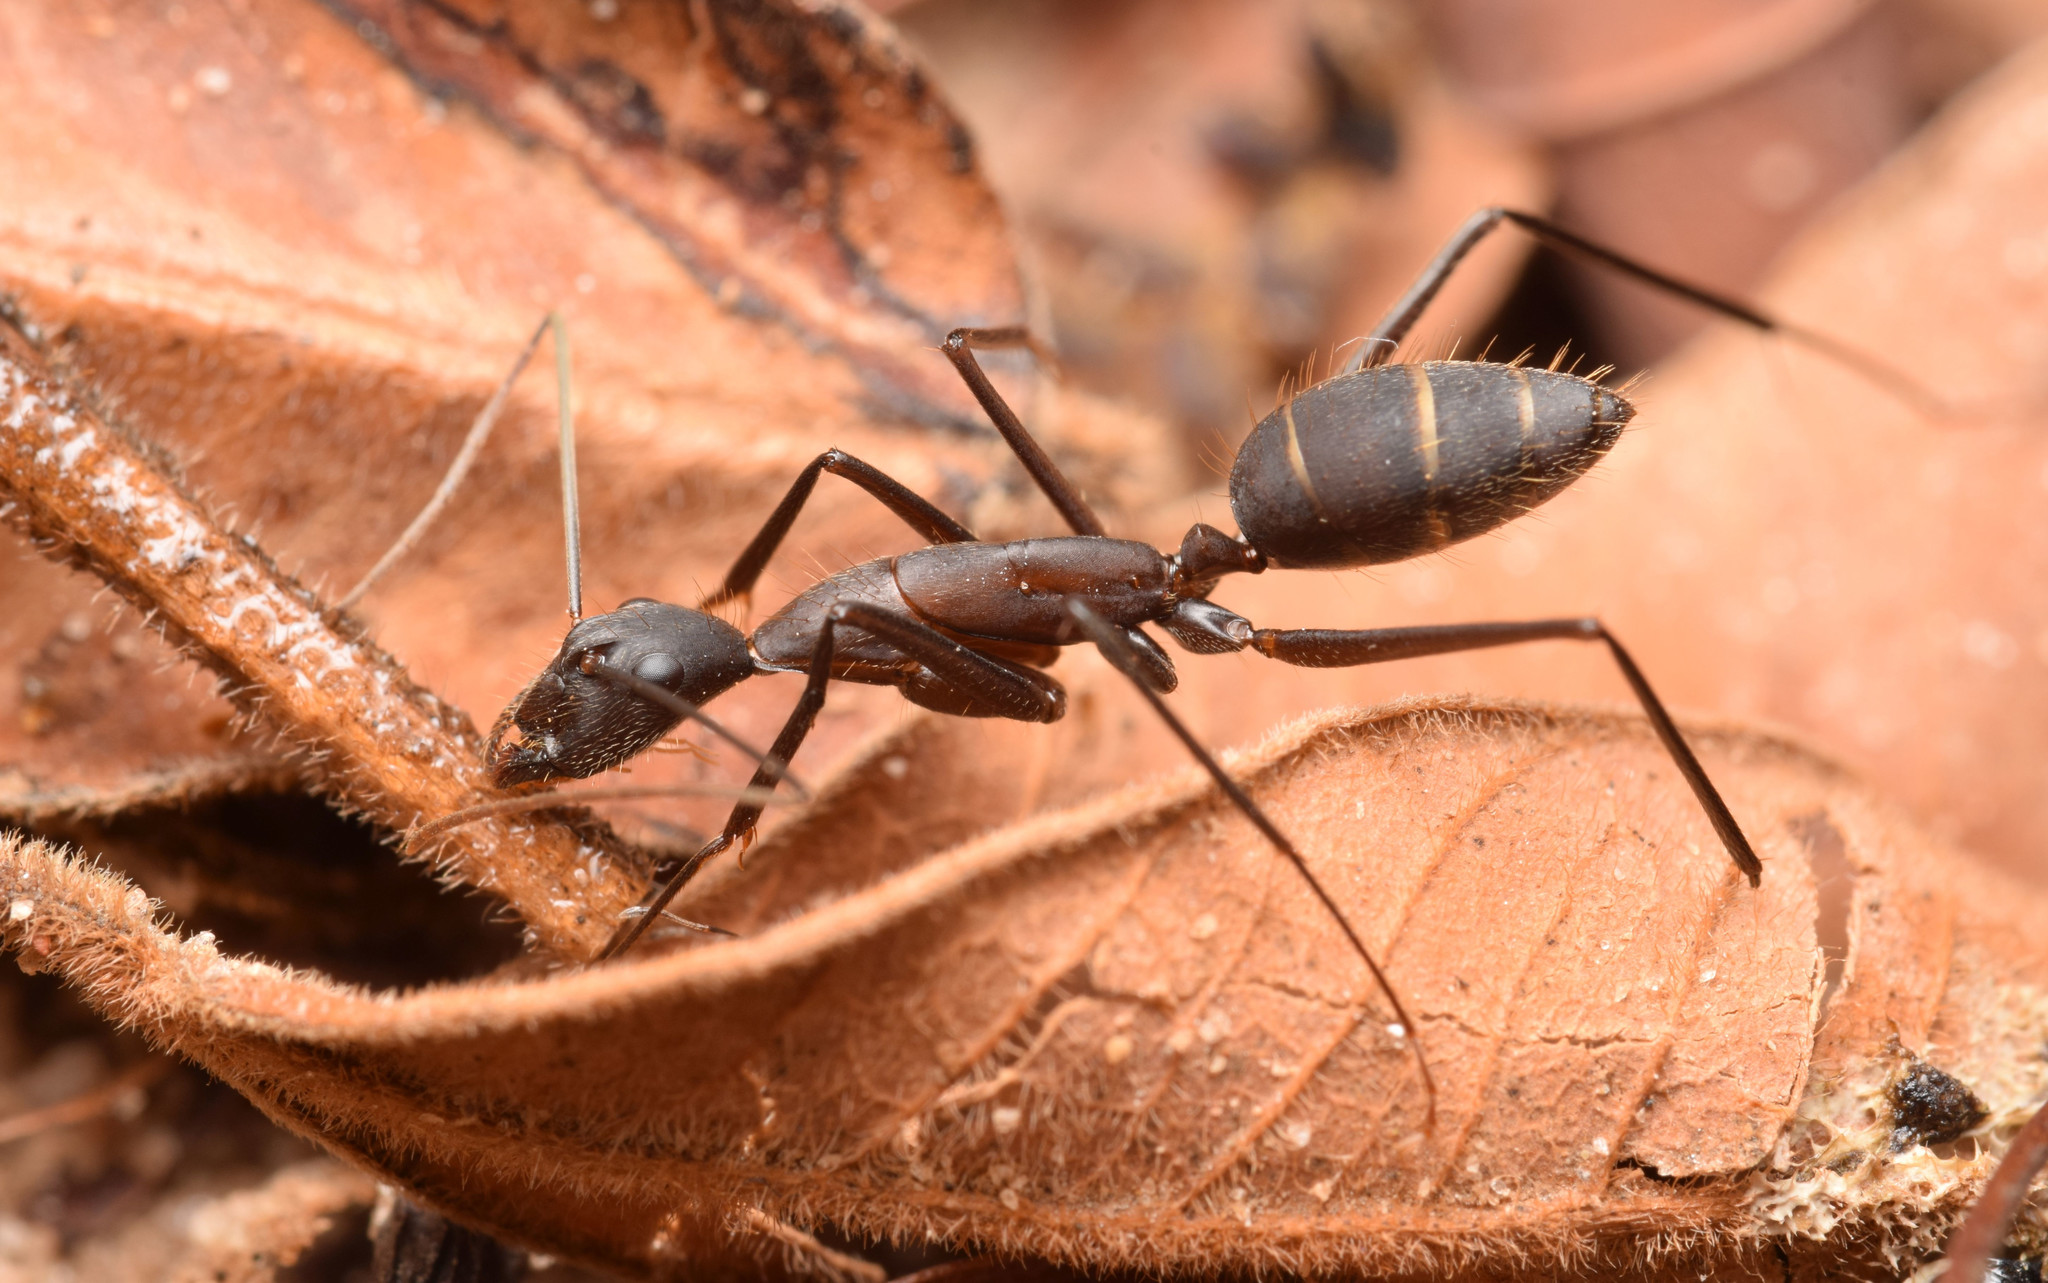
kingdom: Animalia
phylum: Arthropoda
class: Insecta
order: Hymenoptera
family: Formicidae
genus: Camponotus
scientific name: Camponotus lespesii
